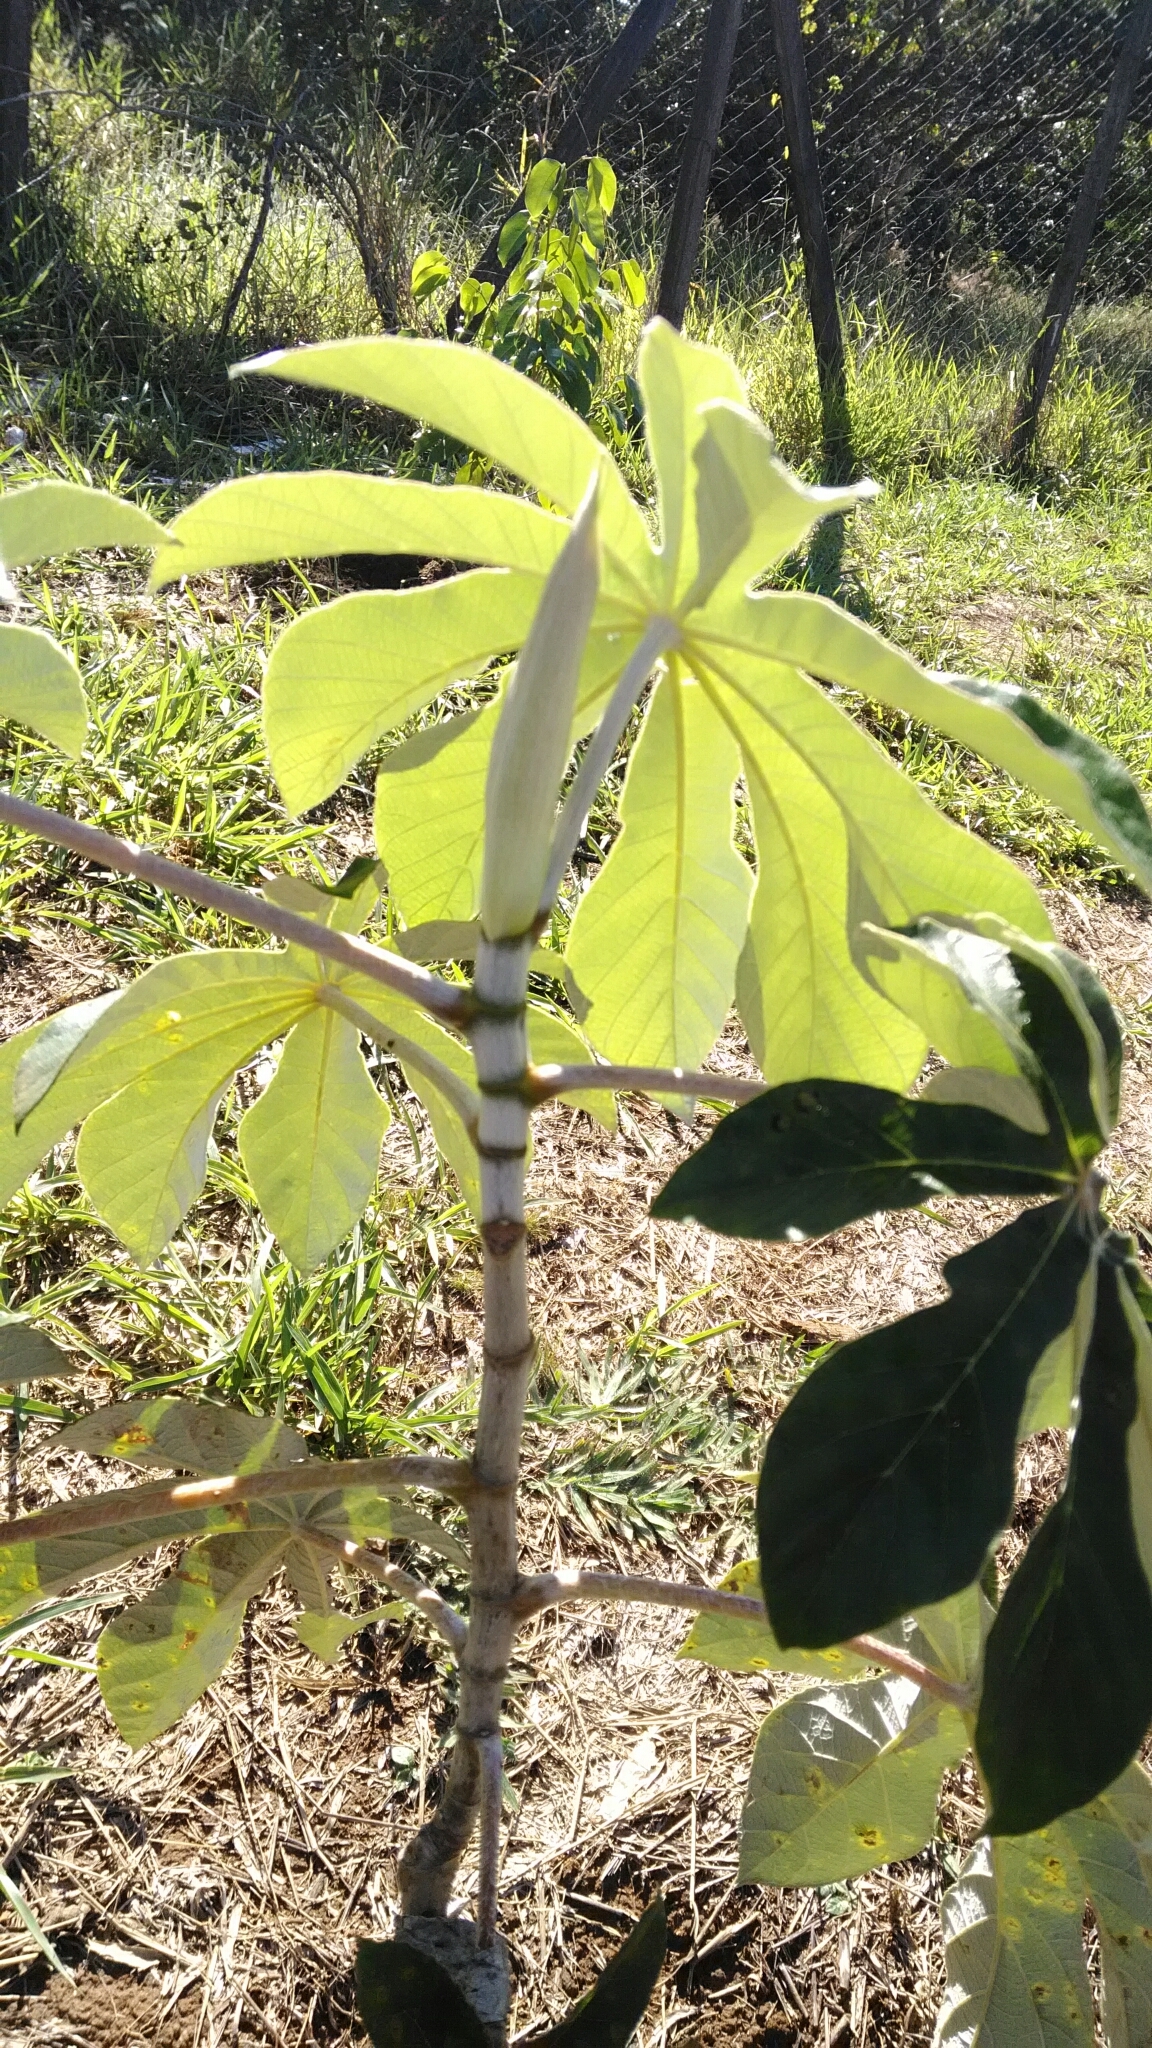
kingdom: Plantae
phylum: Tracheophyta
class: Magnoliopsida
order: Rosales
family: Urticaceae
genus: Cecropia
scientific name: Cecropia pachystachya
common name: Ambay pumpwood
